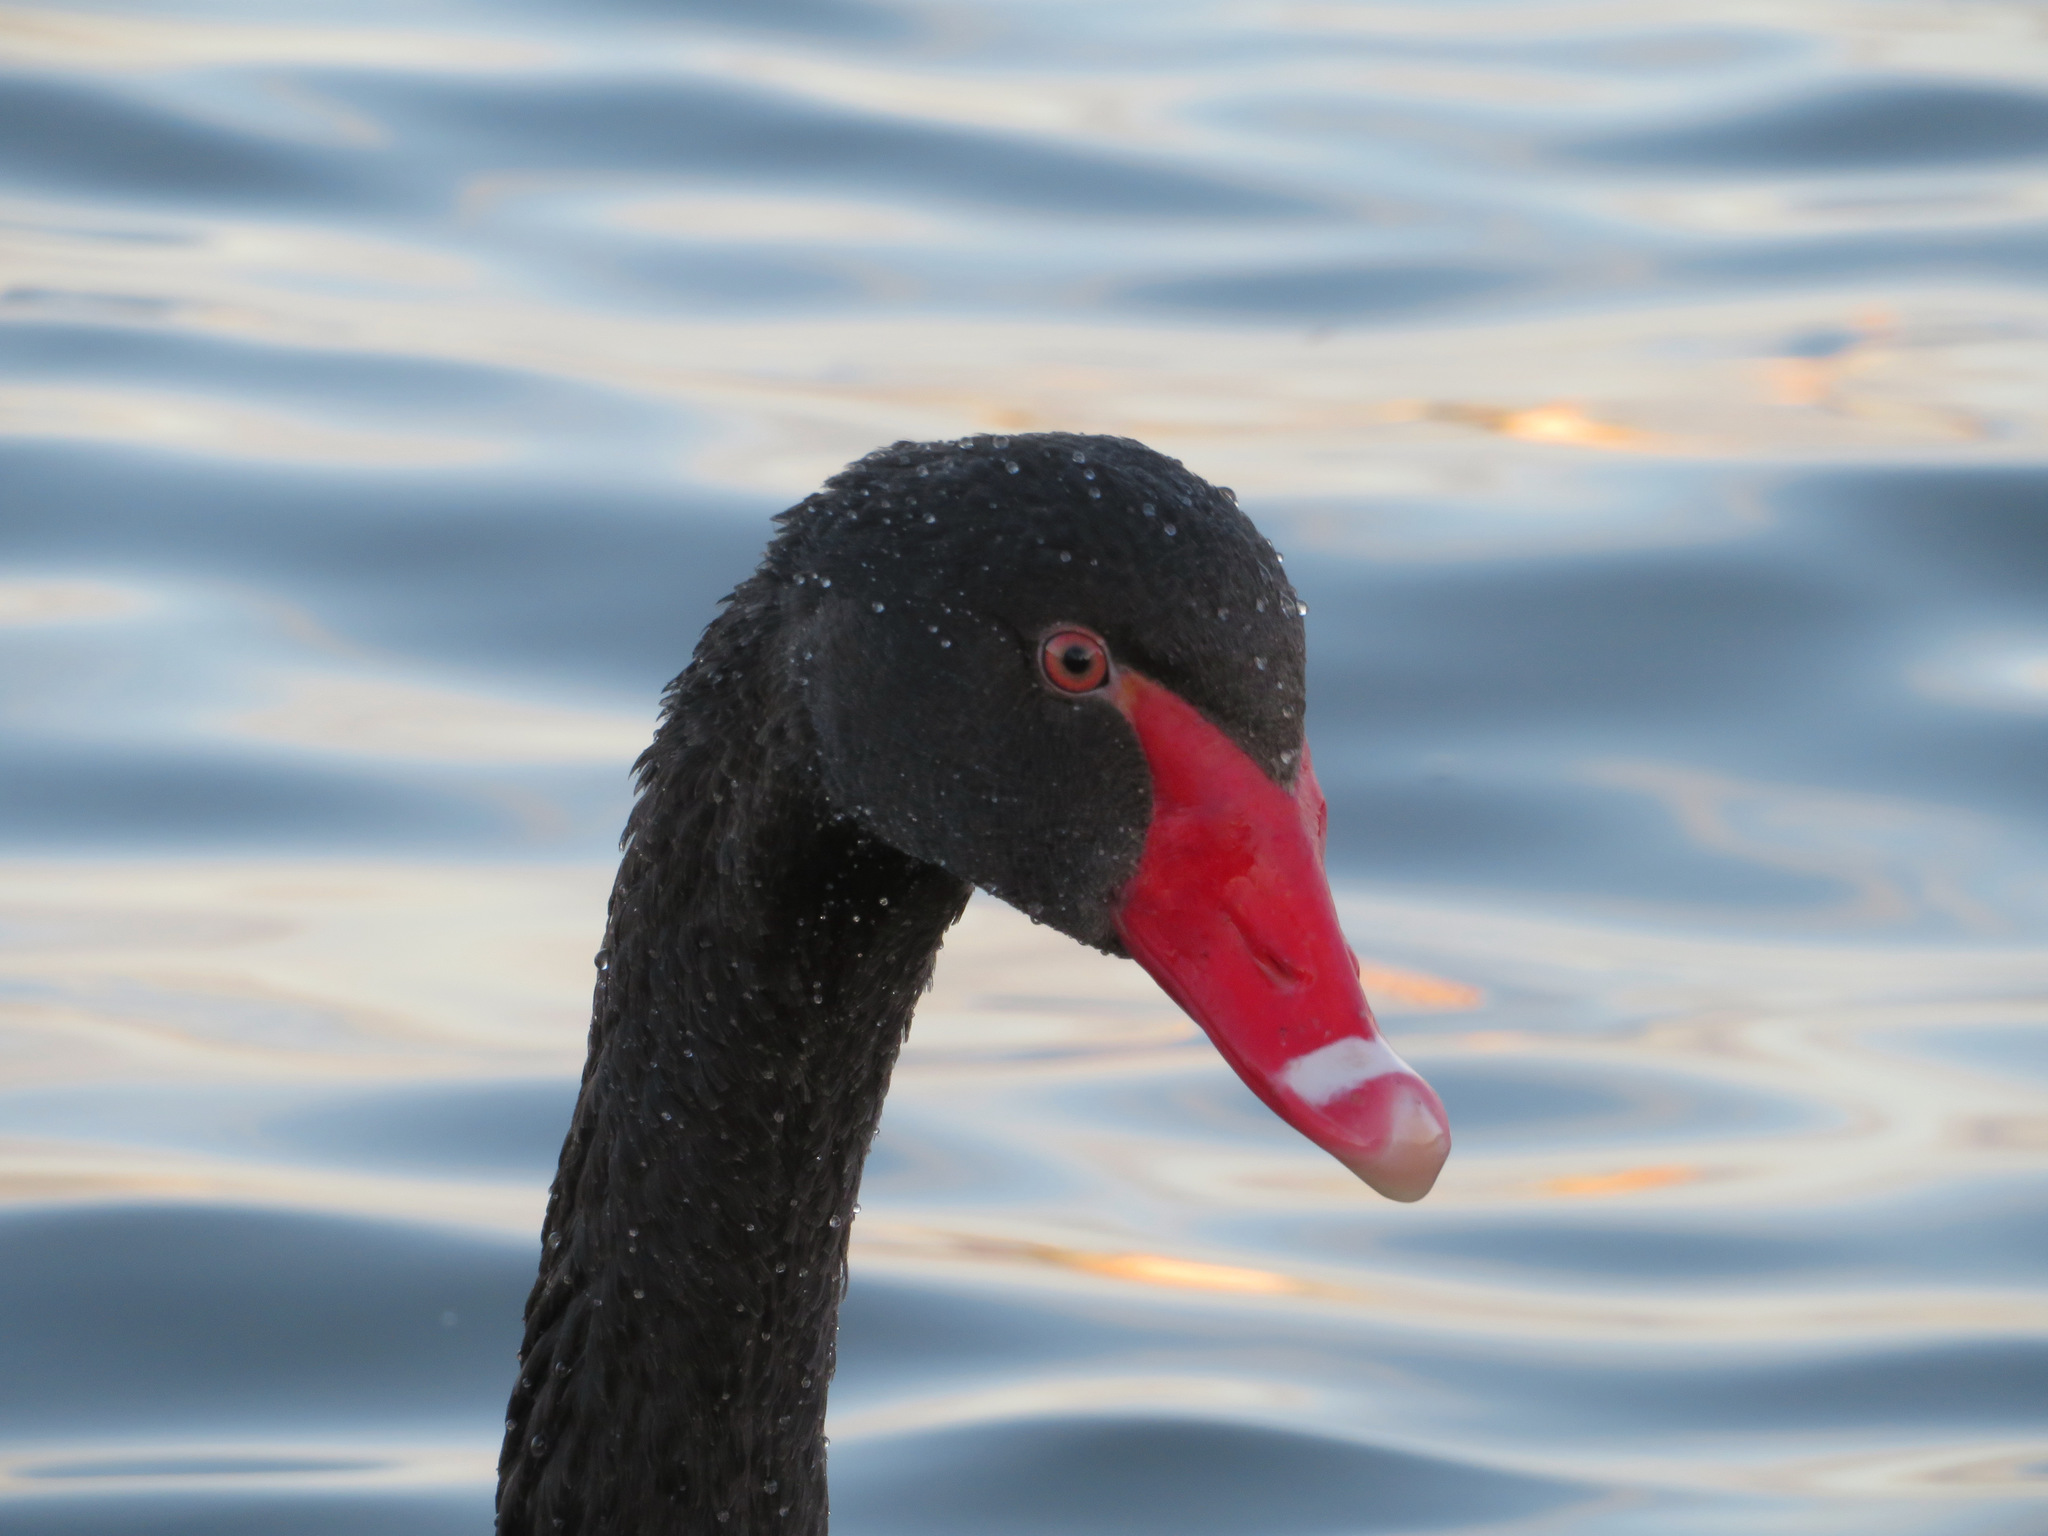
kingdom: Animalia
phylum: Chordata
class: Aves
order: Anseriformes
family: Anatidae
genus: Cygnus
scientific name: Cygnus atratus
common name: Black swan
